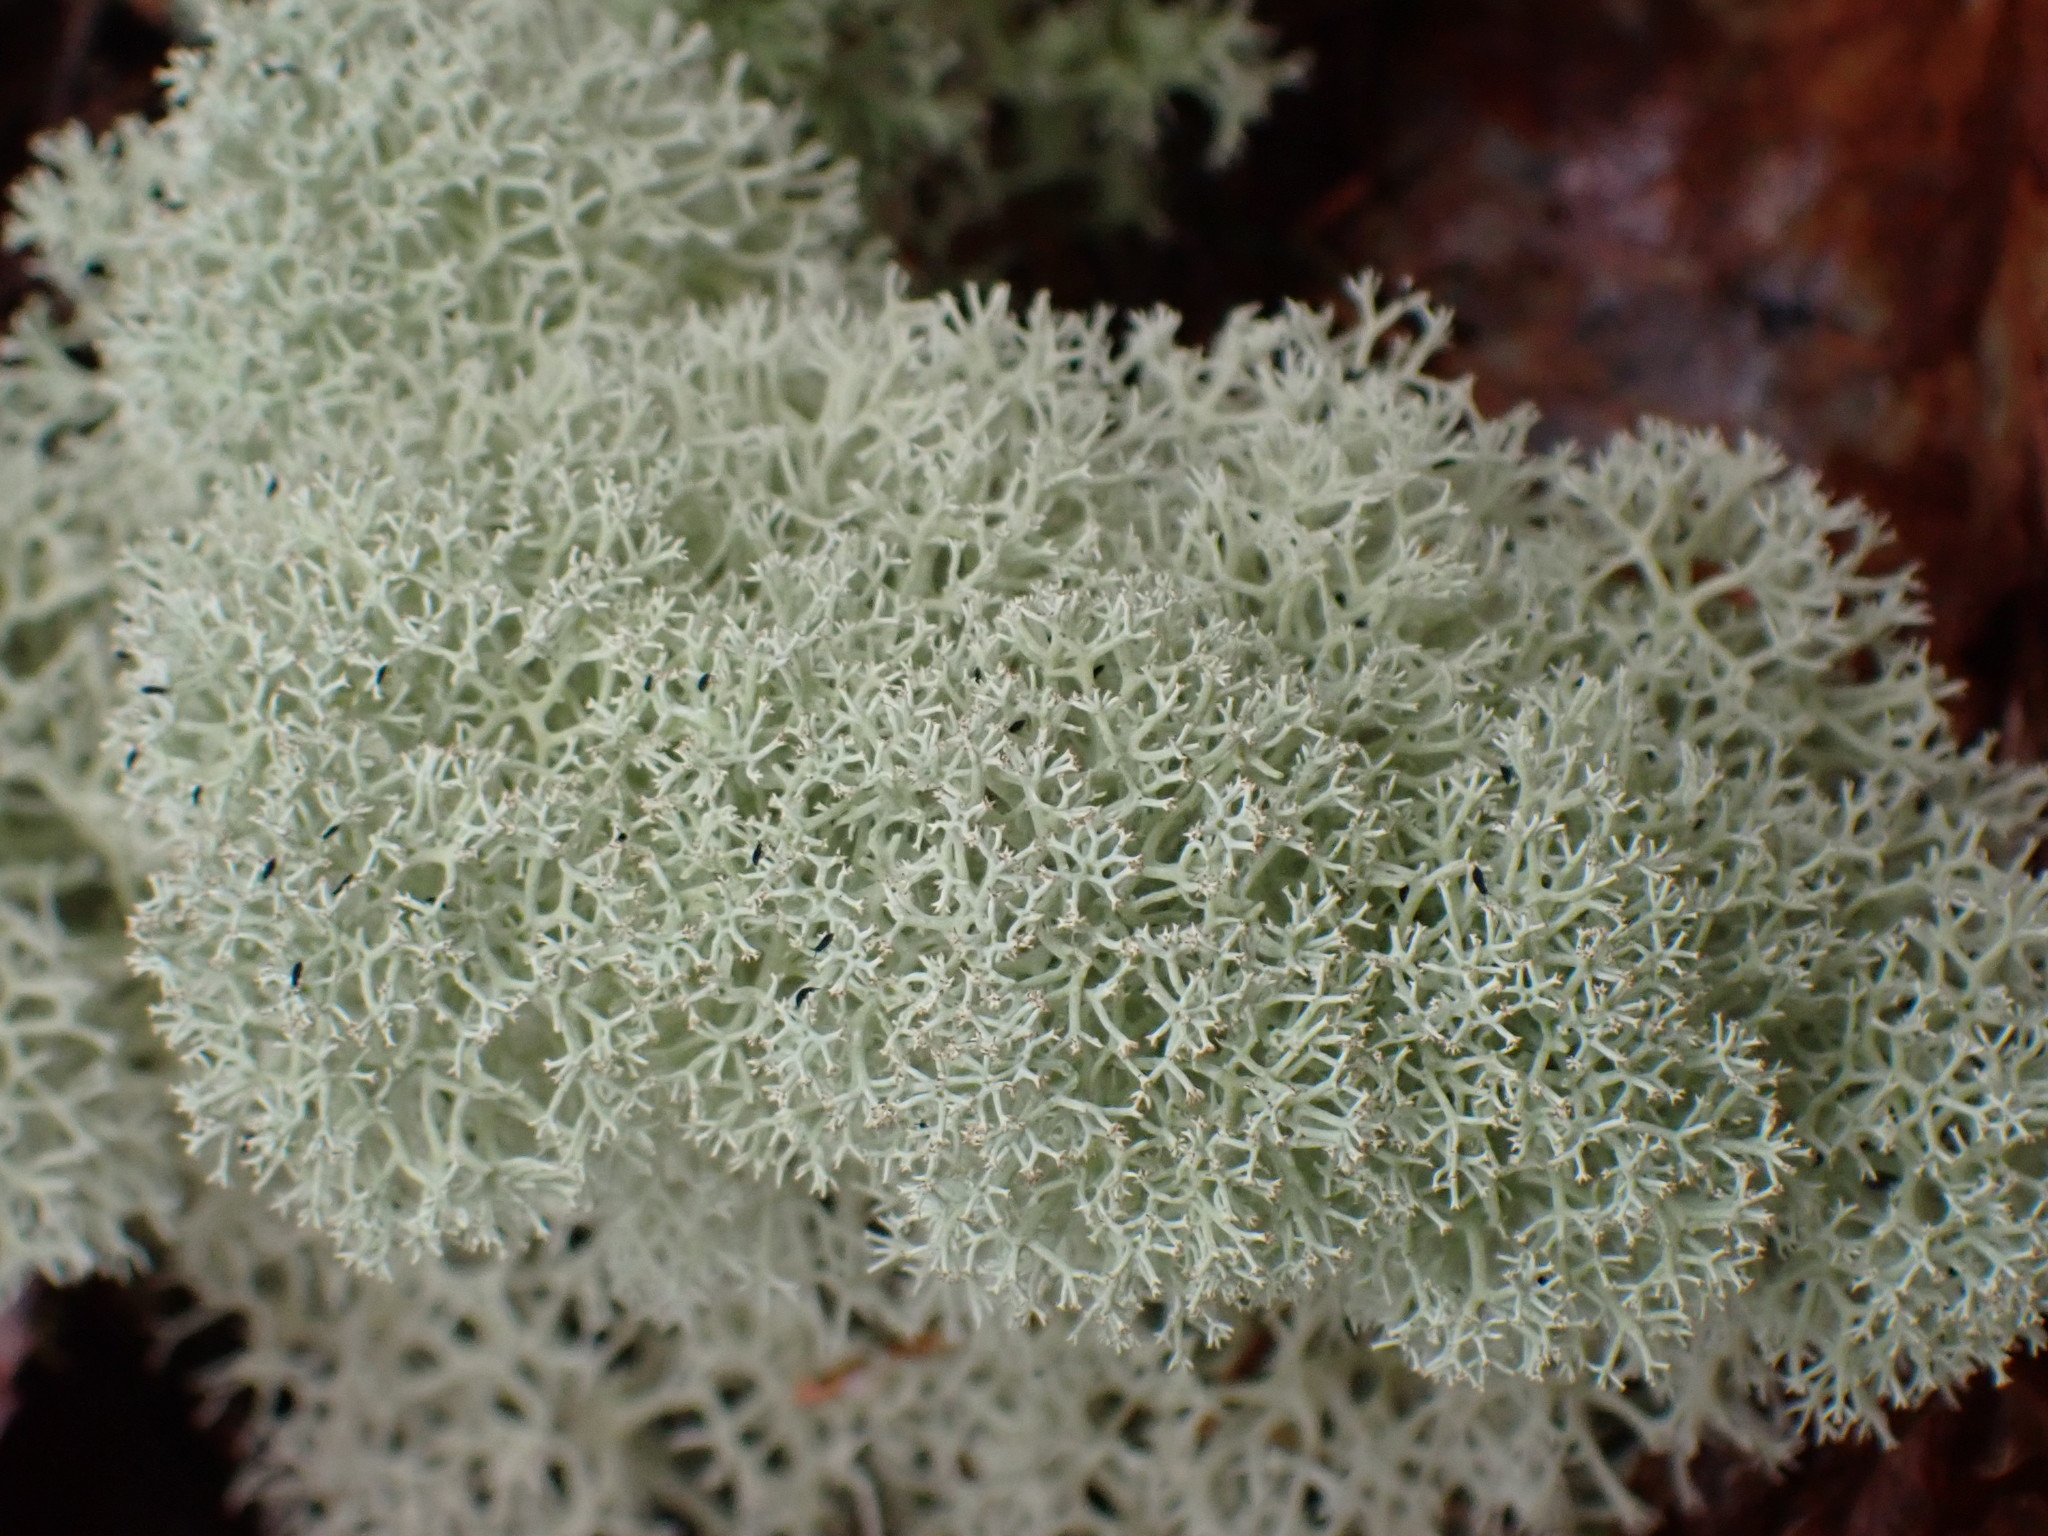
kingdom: Fungi
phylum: Ascomycota
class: Lecanoromycetes
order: Lecanorales
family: Cladoniaceae
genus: Cladonia
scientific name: Cladonia stellaris
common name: Star-tipped reindeer lichen
